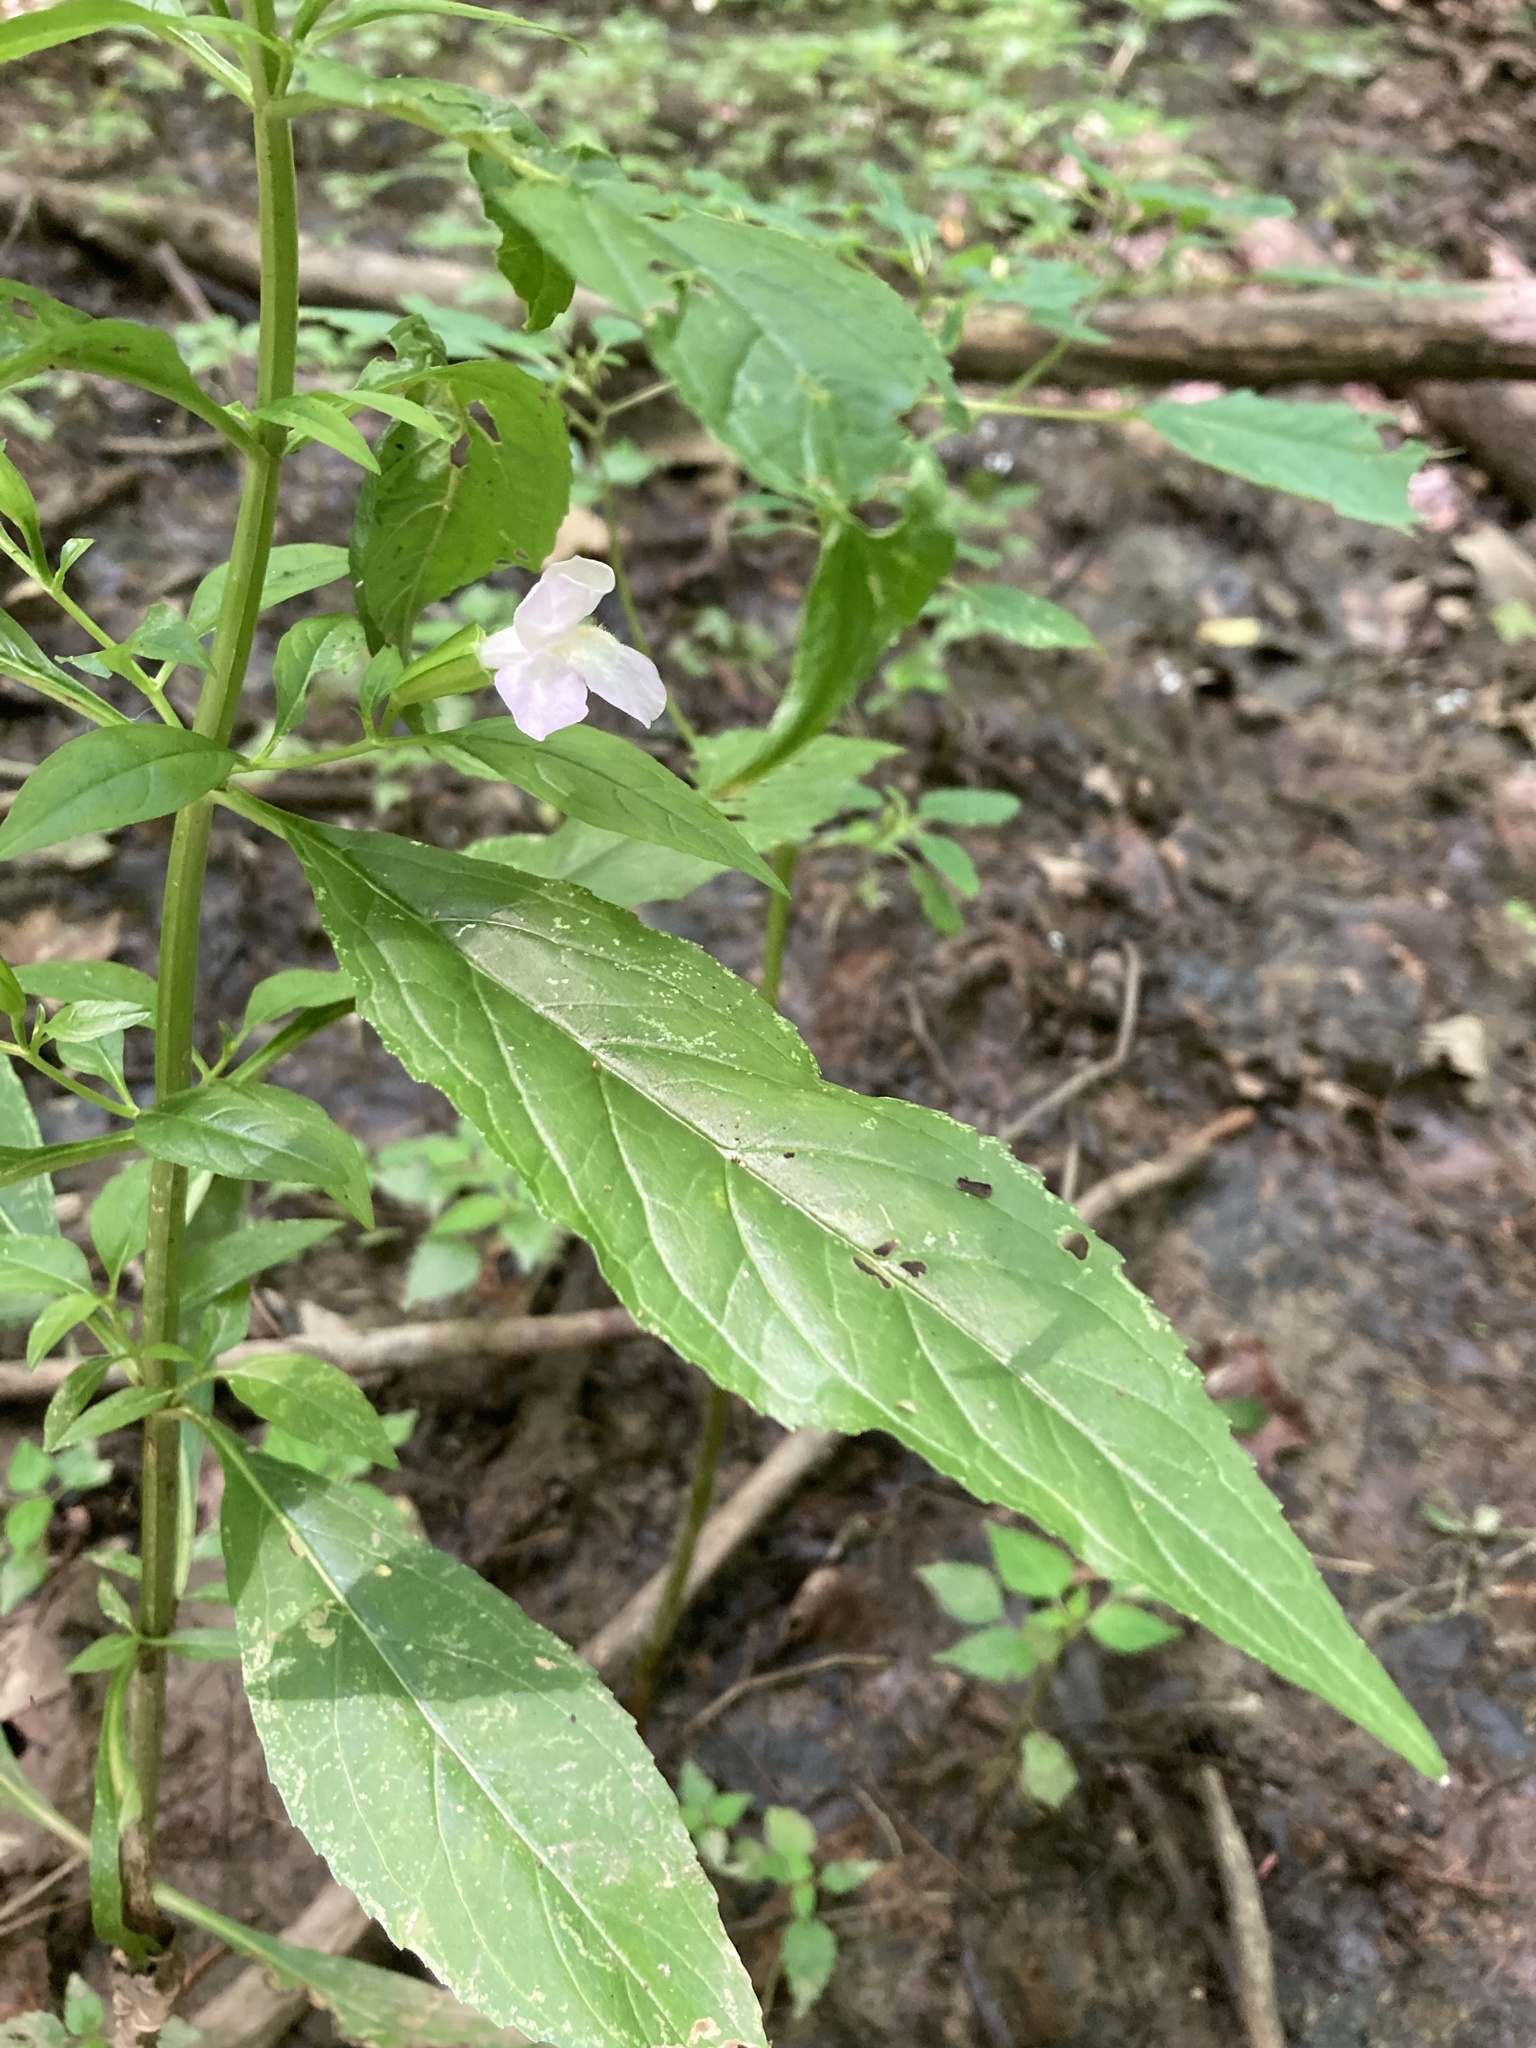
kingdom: Plantae
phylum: Tracheophyta
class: Magnoliopsida
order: Lamiales
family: Phrymaceae
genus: Mimulus
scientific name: Mimulus alatus
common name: Sharp-wing monkey-flower
